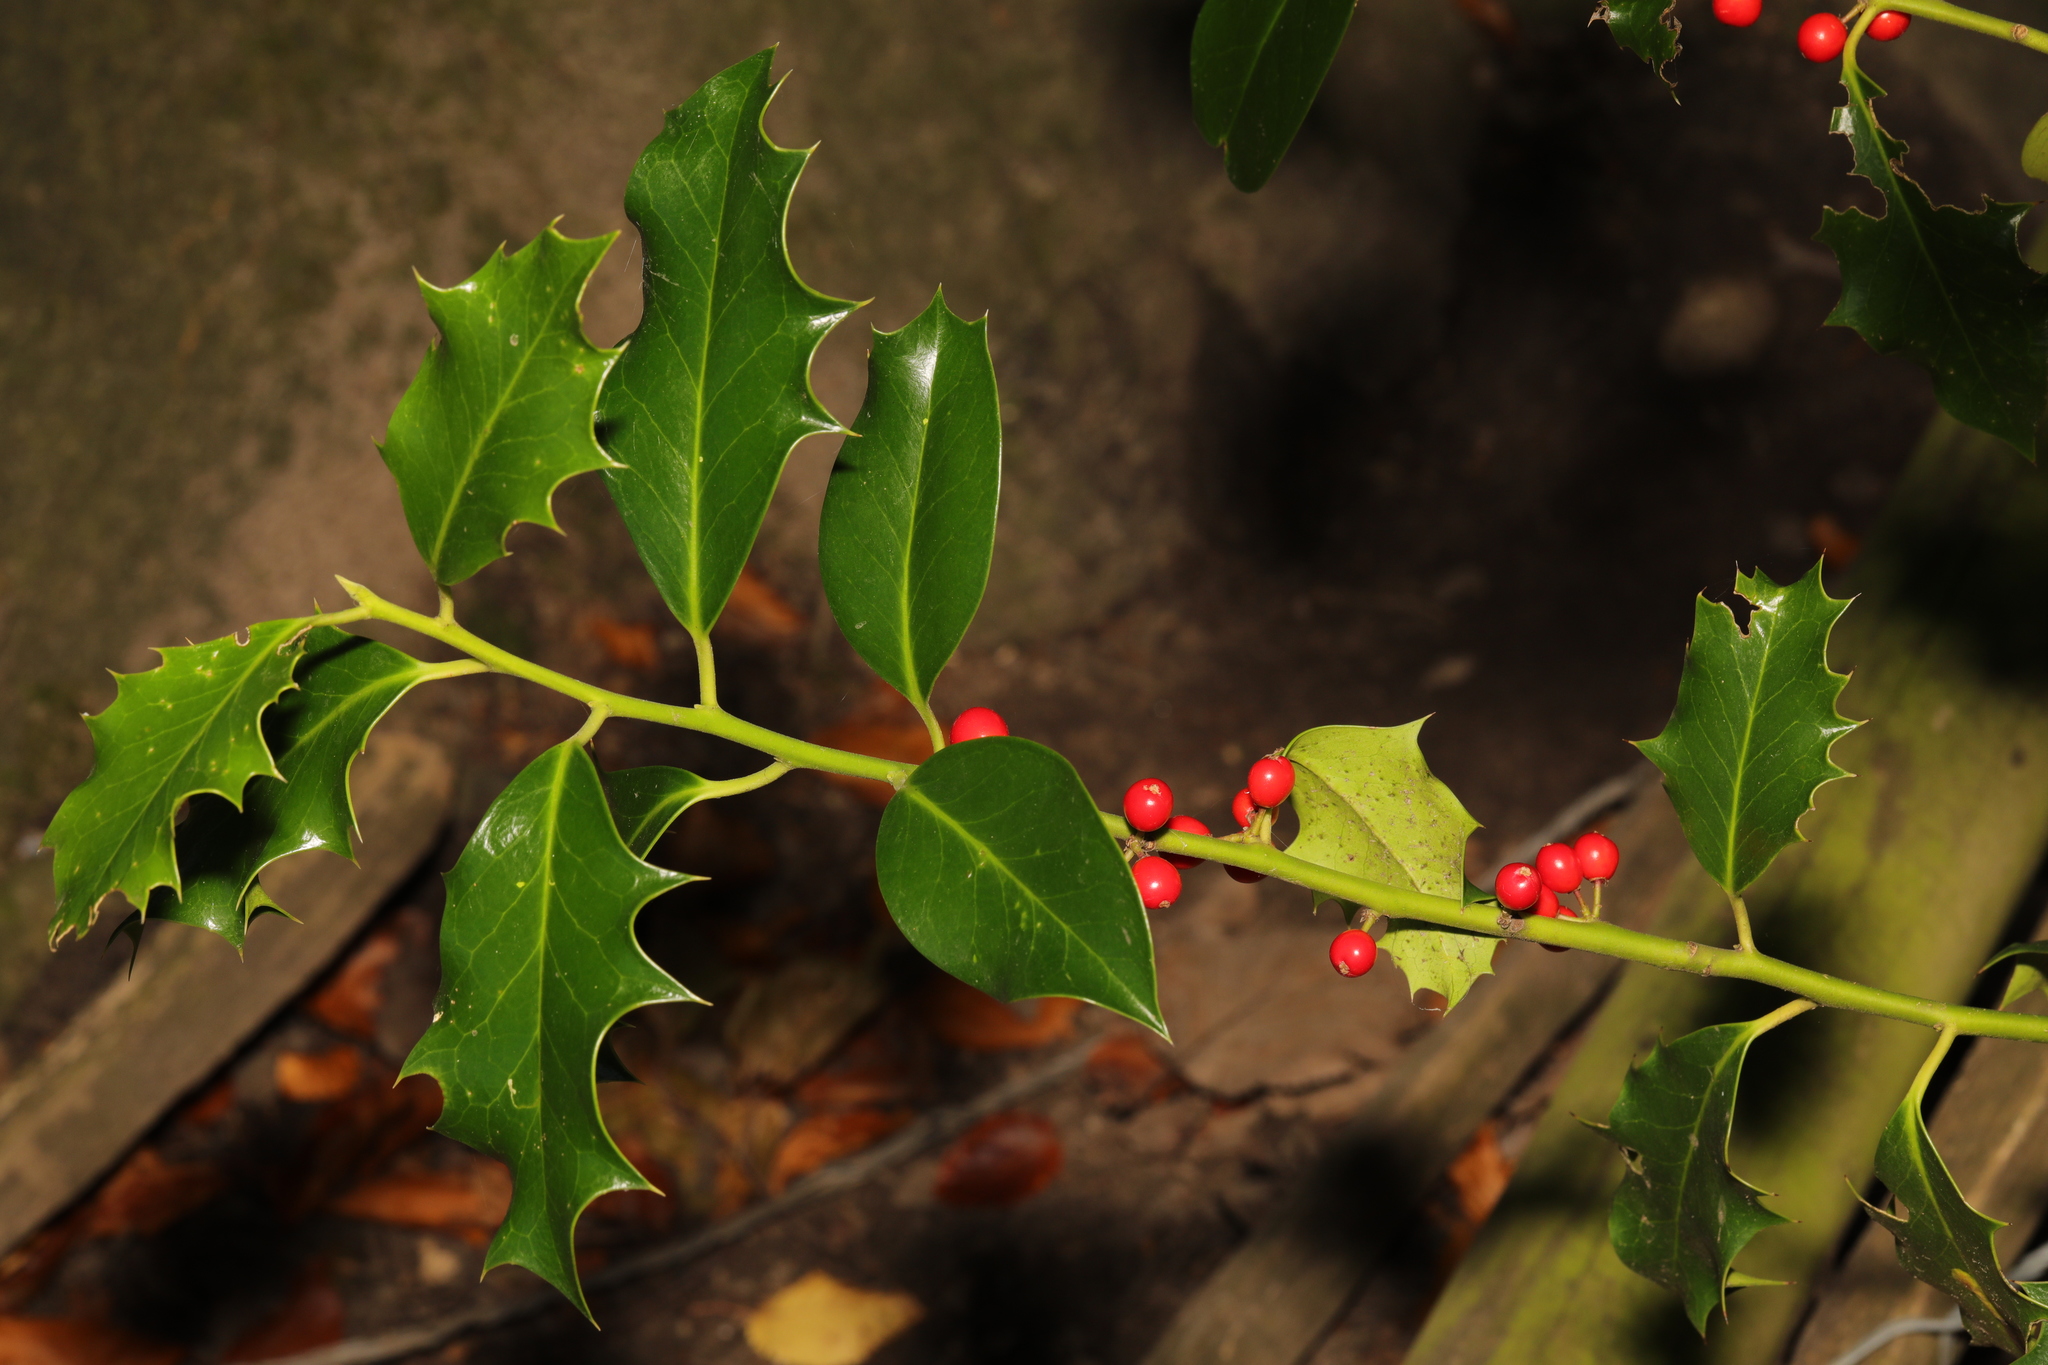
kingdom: Plantae
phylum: Tracheophyta
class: Magnoliopsida
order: Aquifoliales
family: Aquifoliaceae
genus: Ilex
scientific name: Ilex aquifolium
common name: English holly
